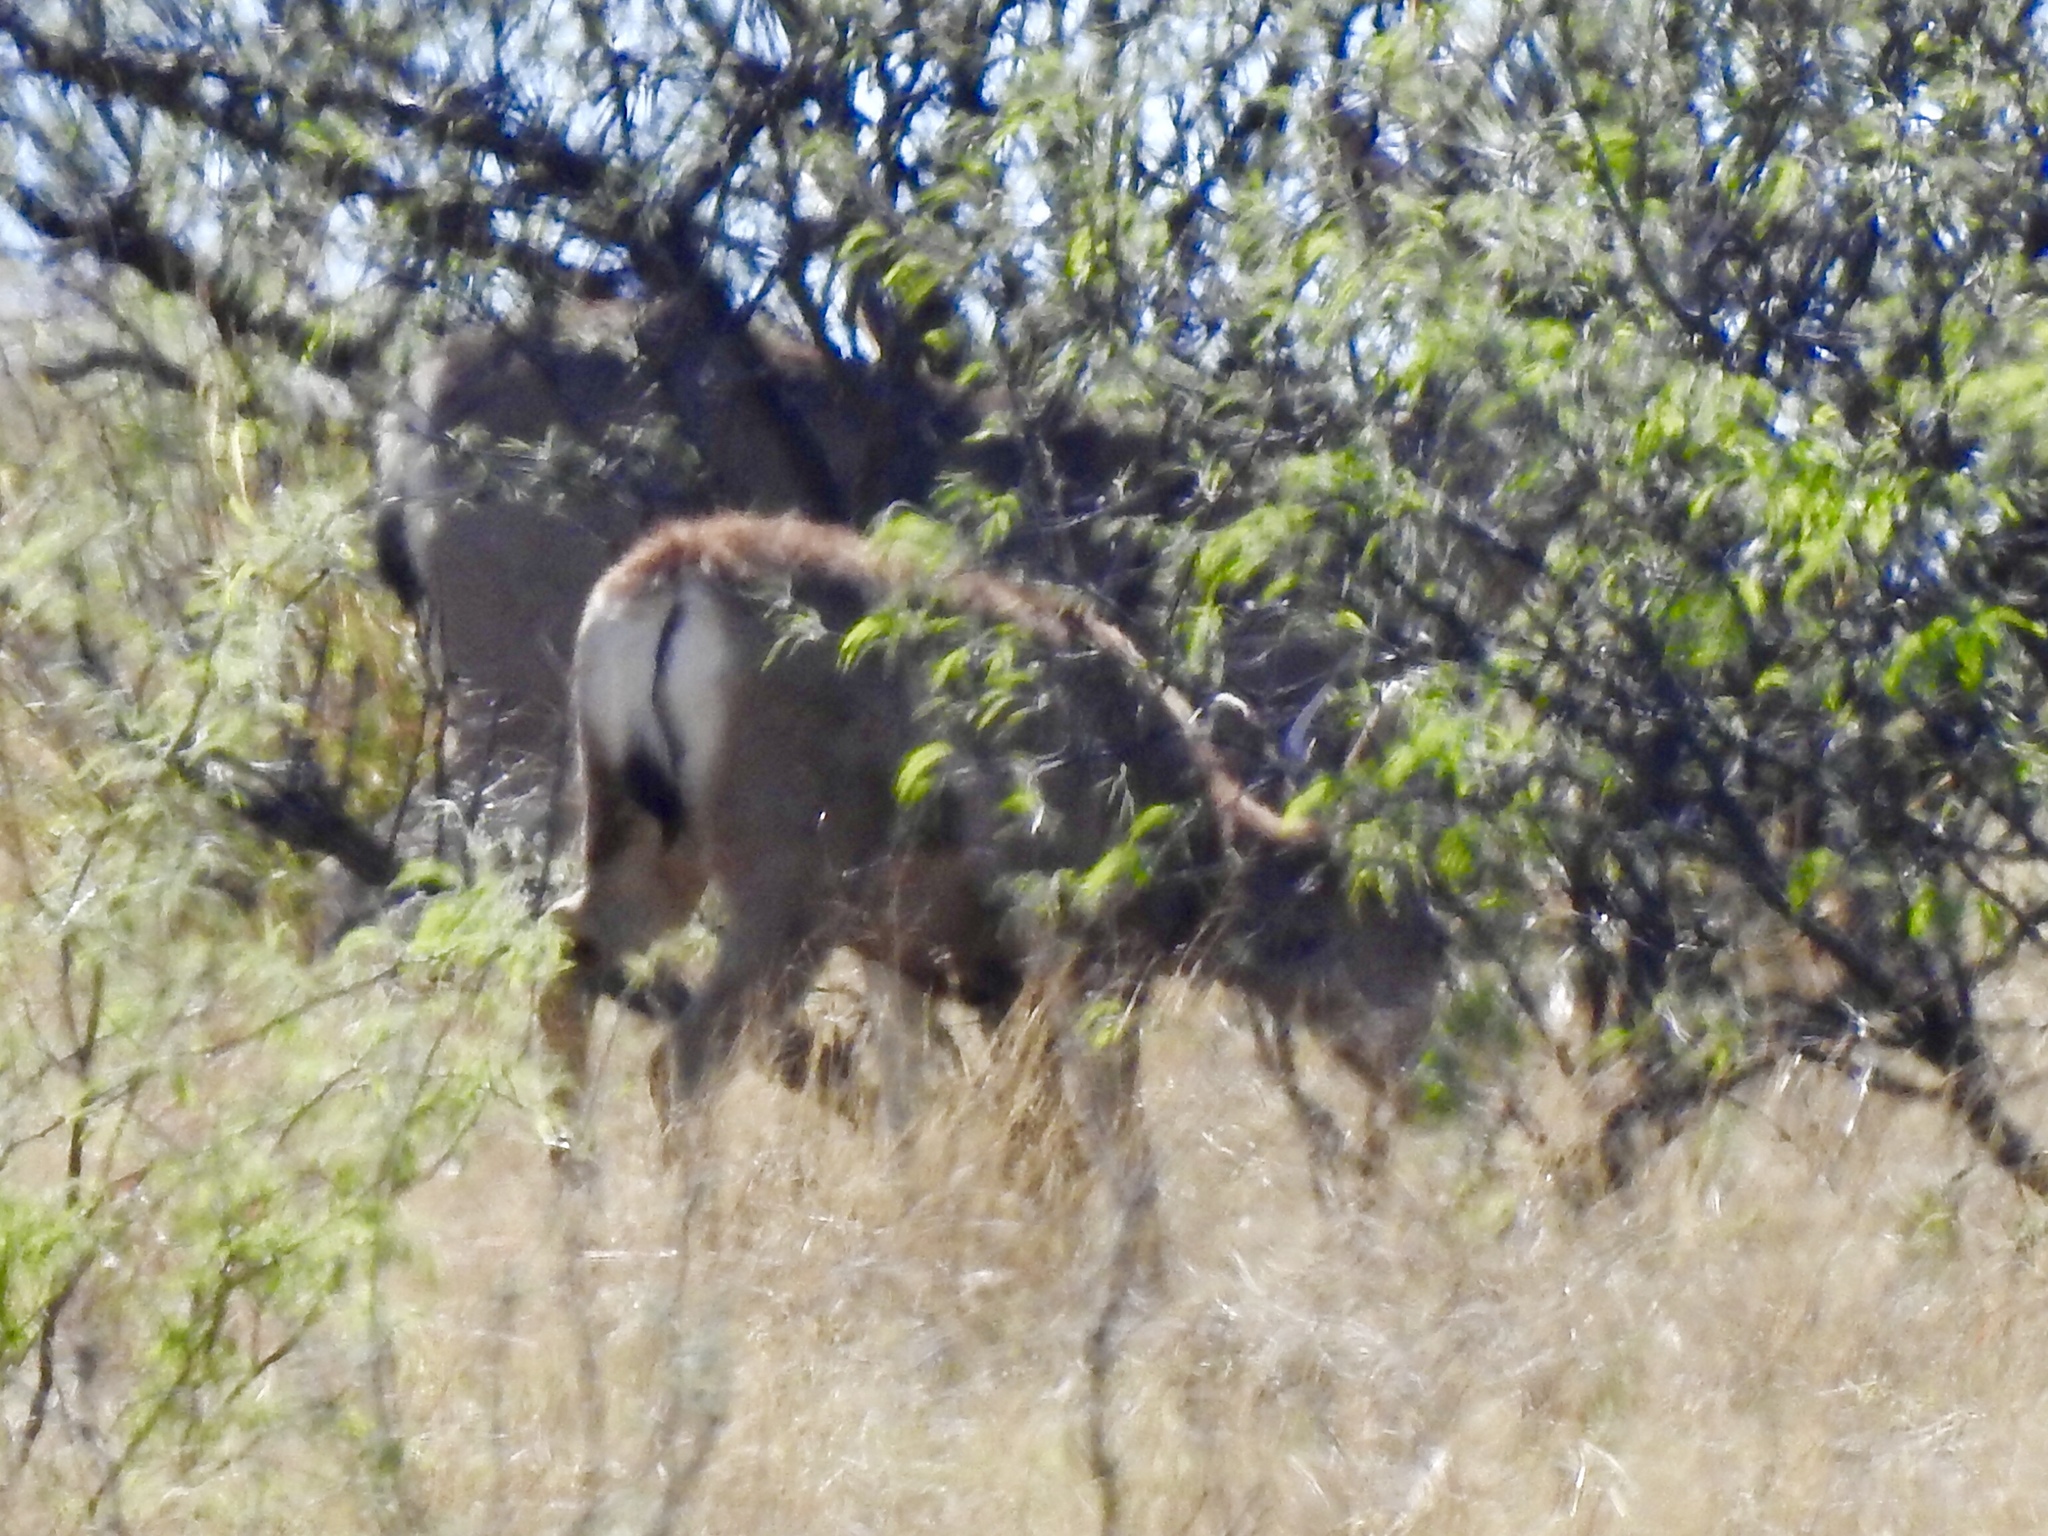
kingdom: Animalia
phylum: Chordata
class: Mammalia
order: Artiodactyla
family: Cervidae
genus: Odocoileus
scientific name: Odocoileus hemionus
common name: Mule deer
